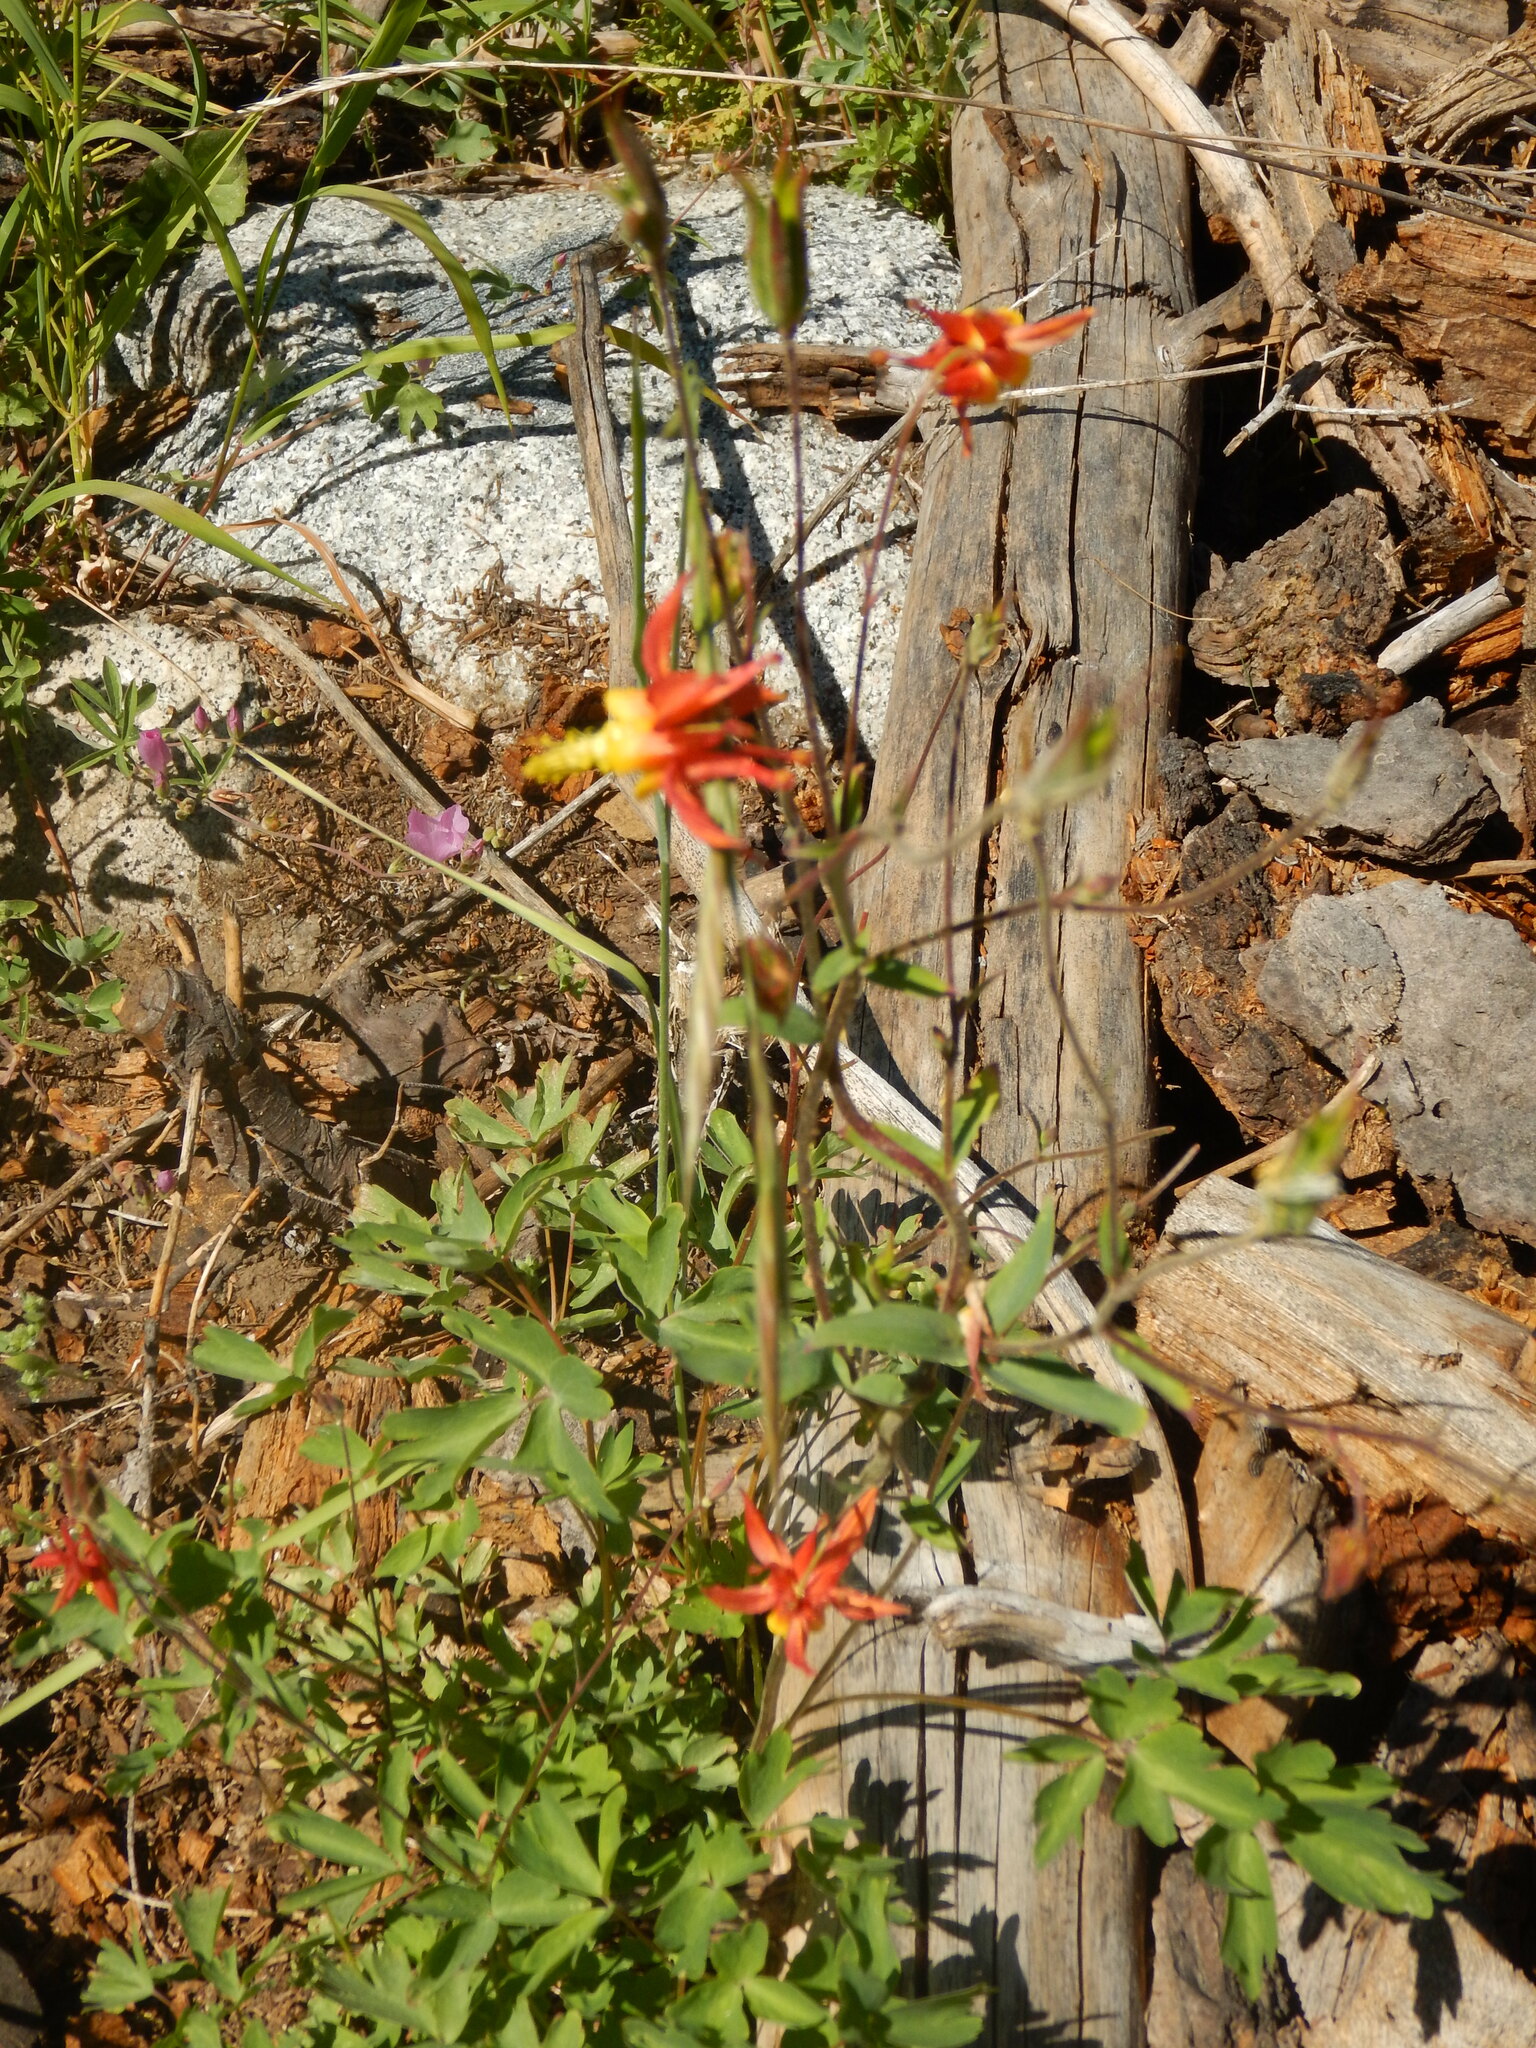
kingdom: Plantae
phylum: Tracheophyta
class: Magnoliopsida
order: Ranunculales
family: Ranunculaceae
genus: Aquilegia
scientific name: Aquilegia formosa
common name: Sitka columbine
